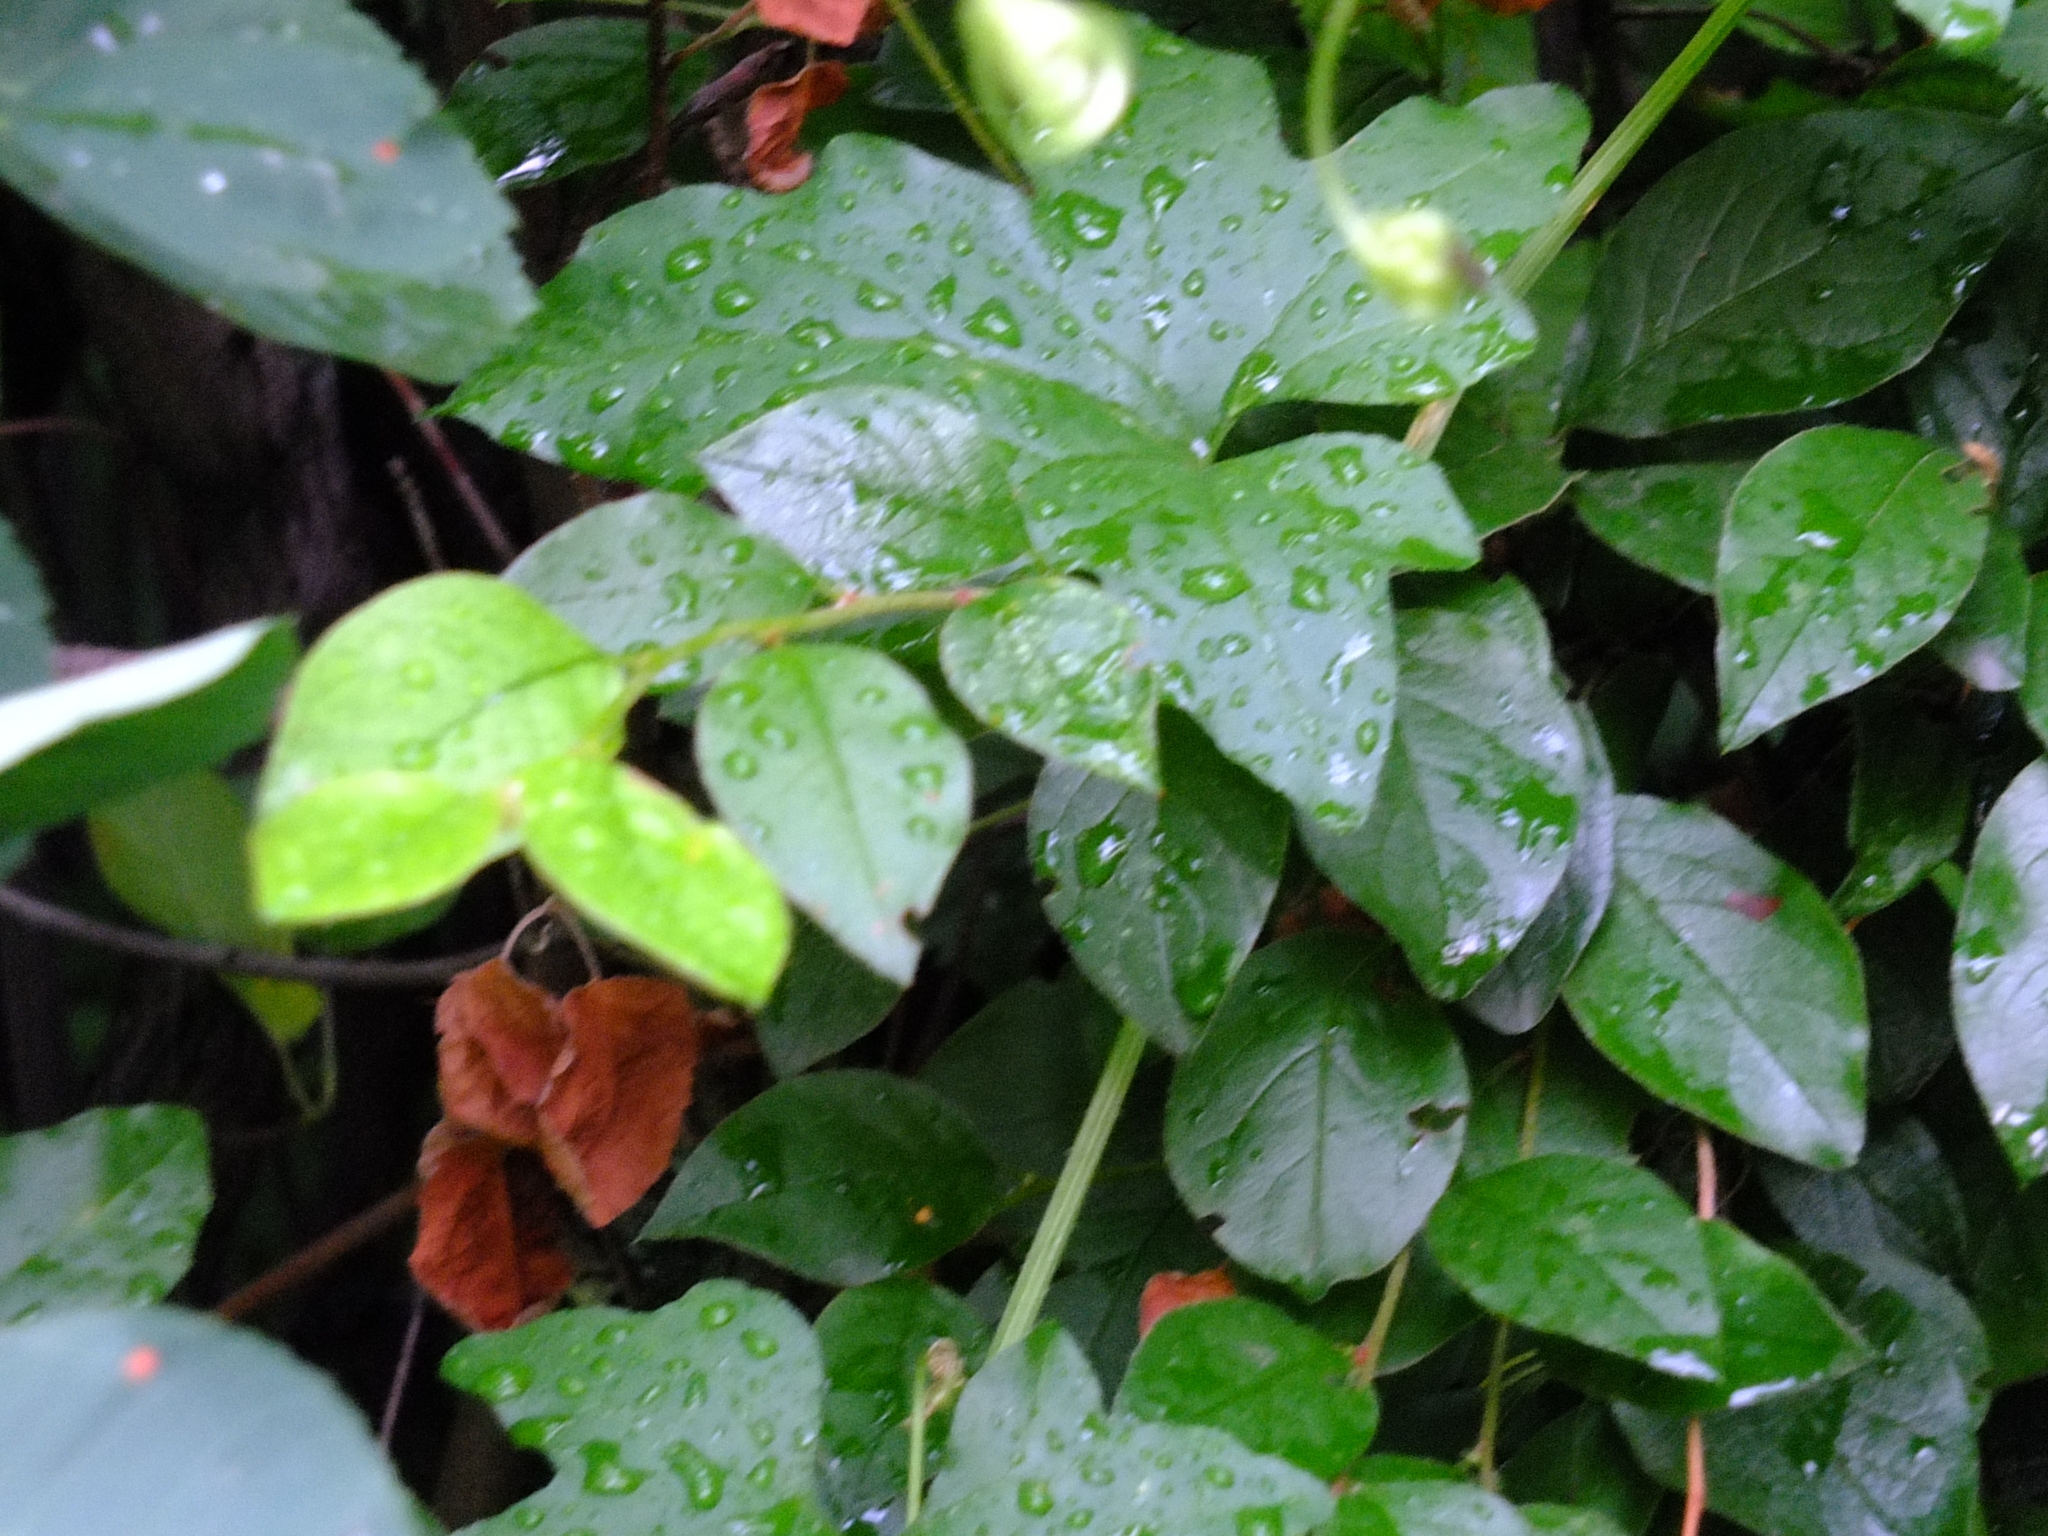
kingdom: Plantae
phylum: Tracheophyta
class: Magnoliopsida
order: Rosales
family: Rosaceae
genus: Cotoneaster
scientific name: Cotoneaster acutifolius
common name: Peking cotoneaster
